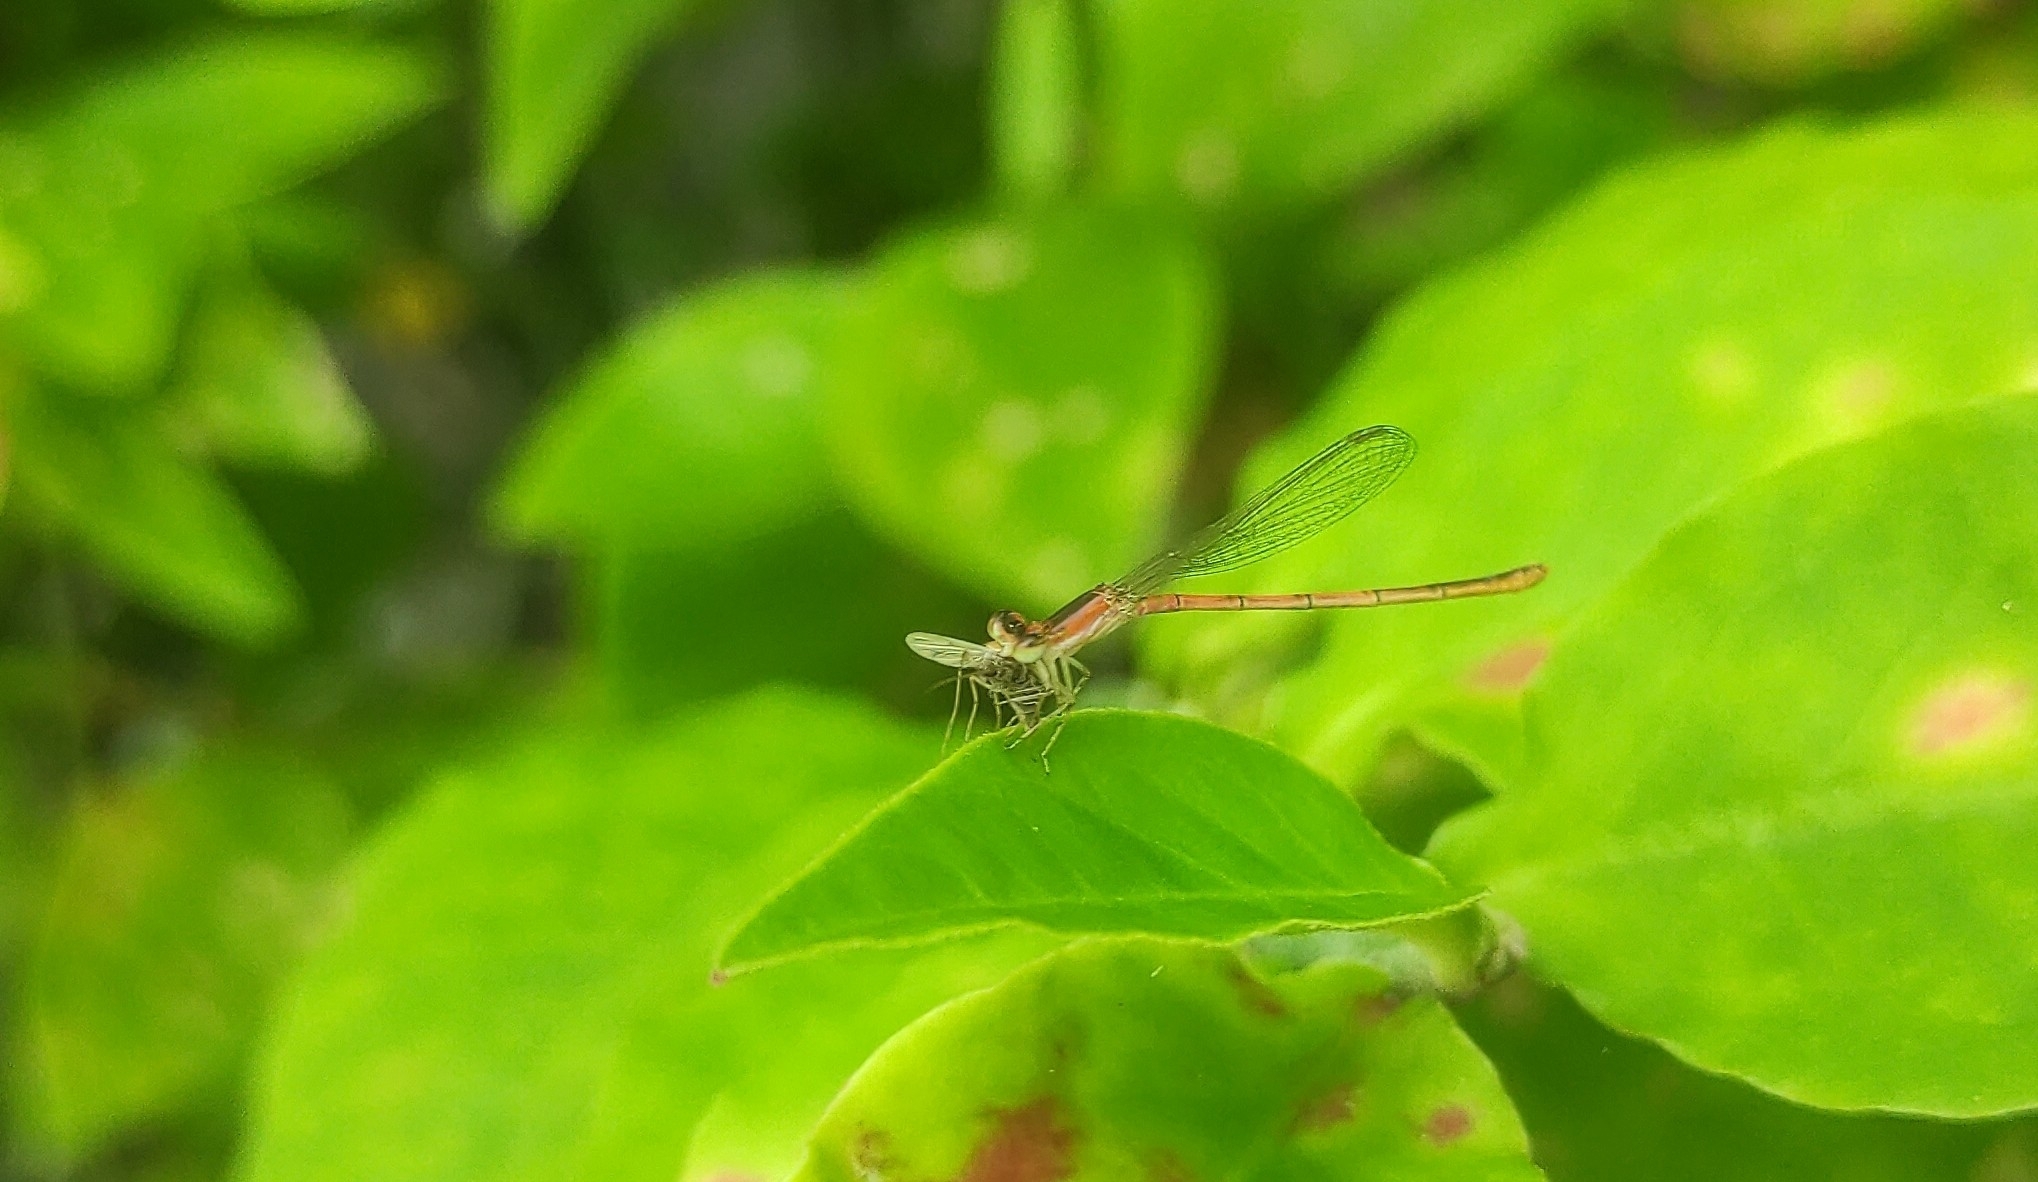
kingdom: Animalia
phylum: Arthropoda
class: Insecta
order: Odonata
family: Coenagrionidae
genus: Agriocnemis
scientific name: Agriocnemis pygmaea
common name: Pygmy wisp
